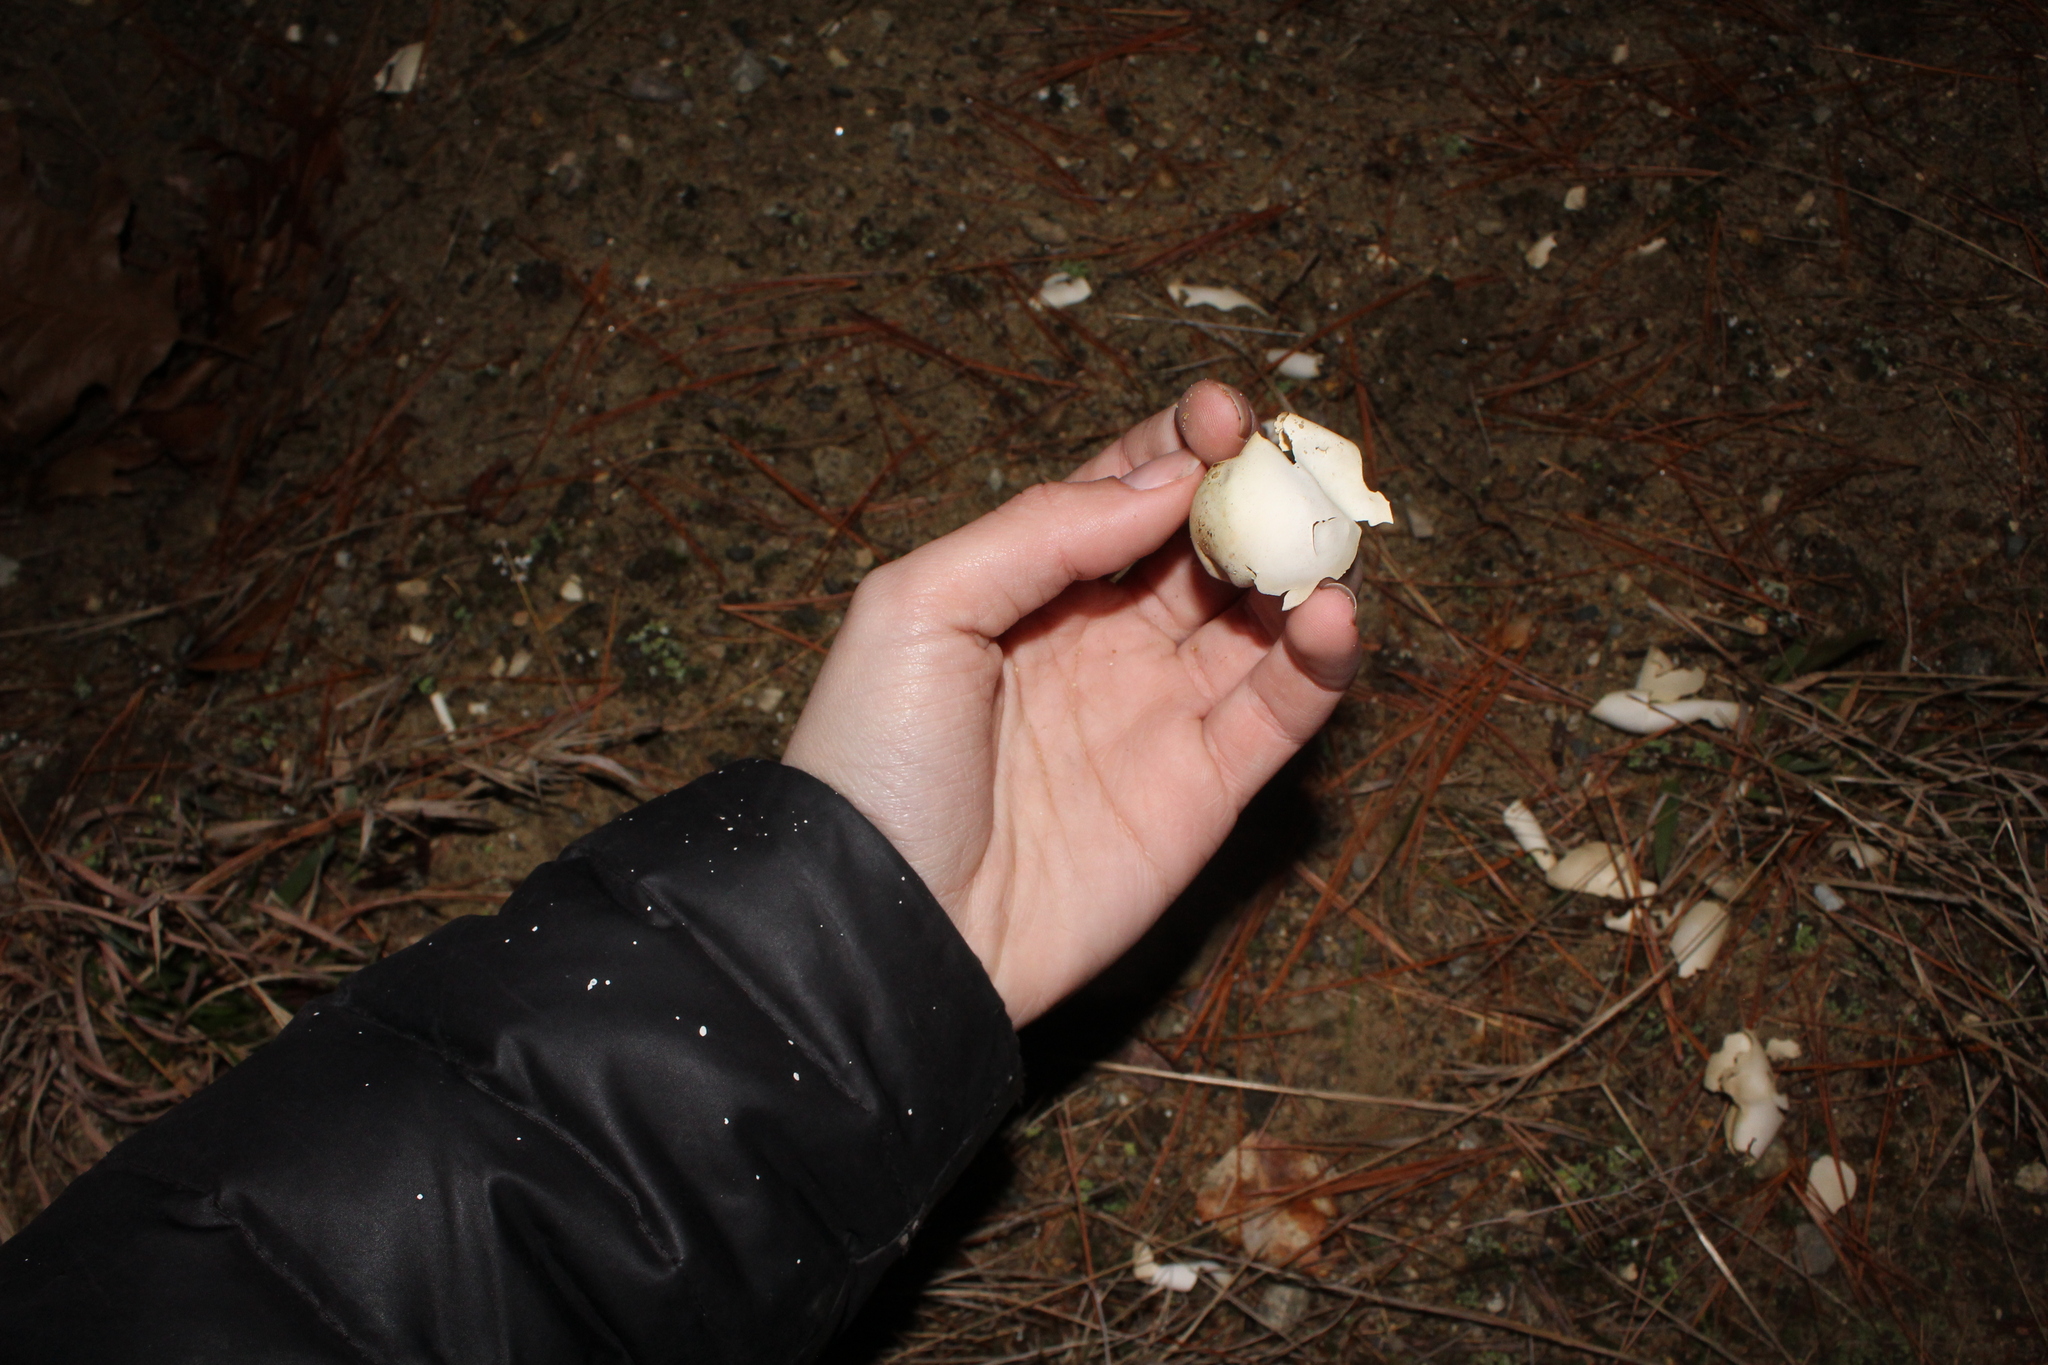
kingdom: Animalia
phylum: Chordata
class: Testudines
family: Chelydridae
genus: Chelydra
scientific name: Chelydra serpentina
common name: Common snapping turtle
